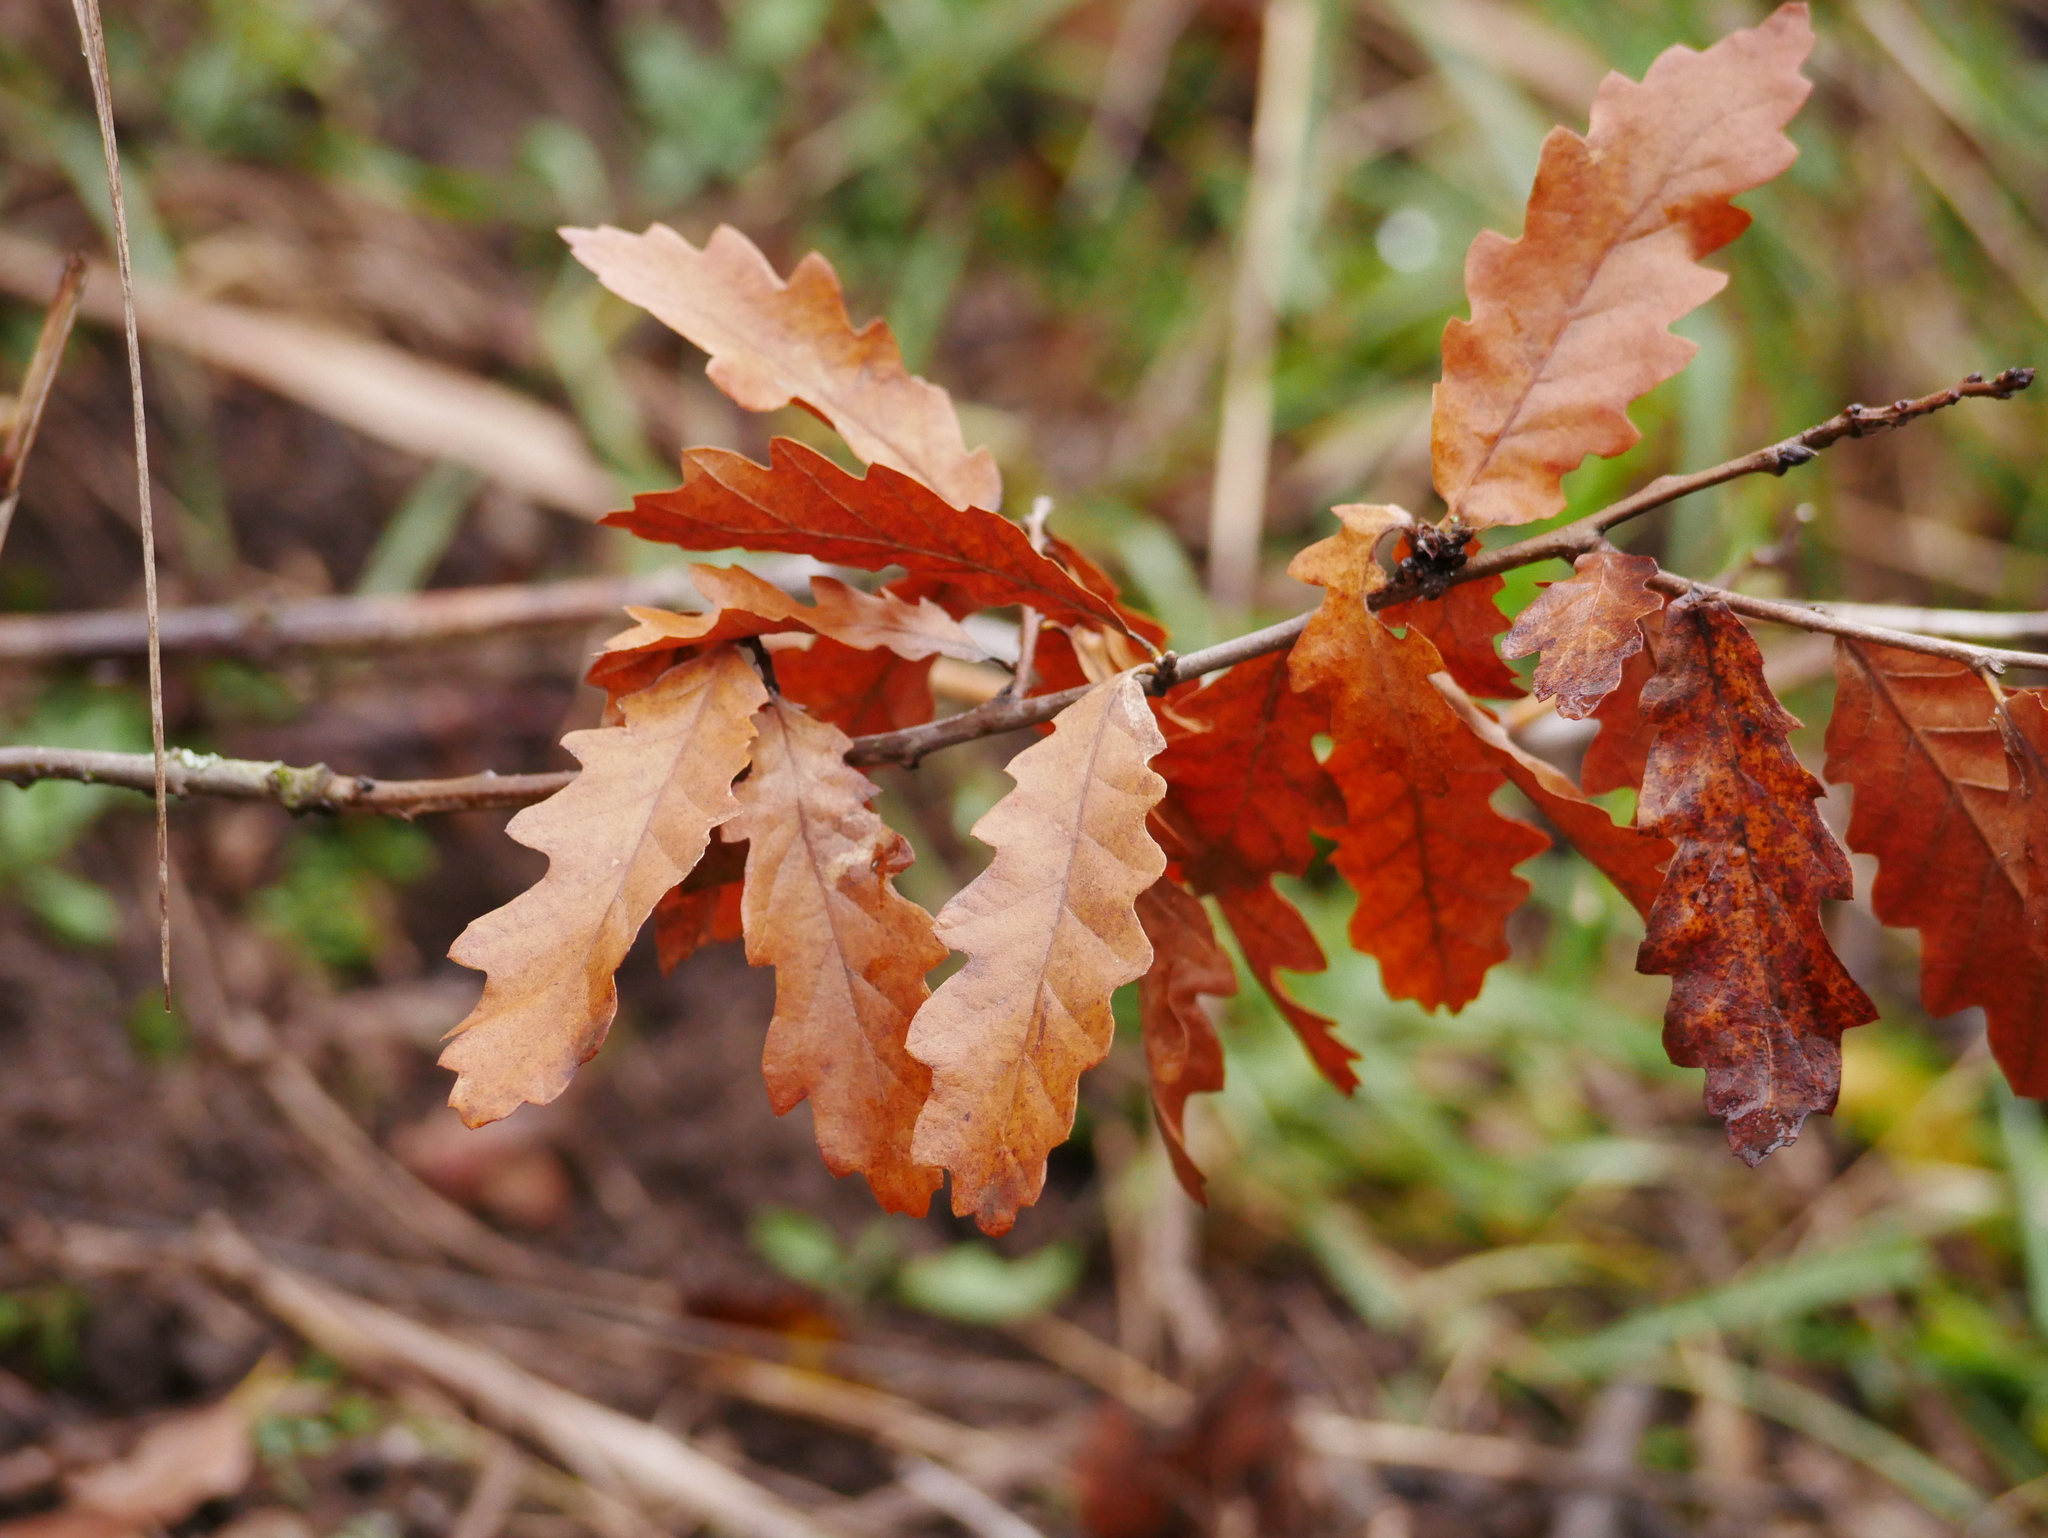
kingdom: Plantae
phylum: Tracheophyta
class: Magnoliopsida
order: Fagales
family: Fagaceae
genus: Quercus
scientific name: Quercus robur
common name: Pedunculate oak
